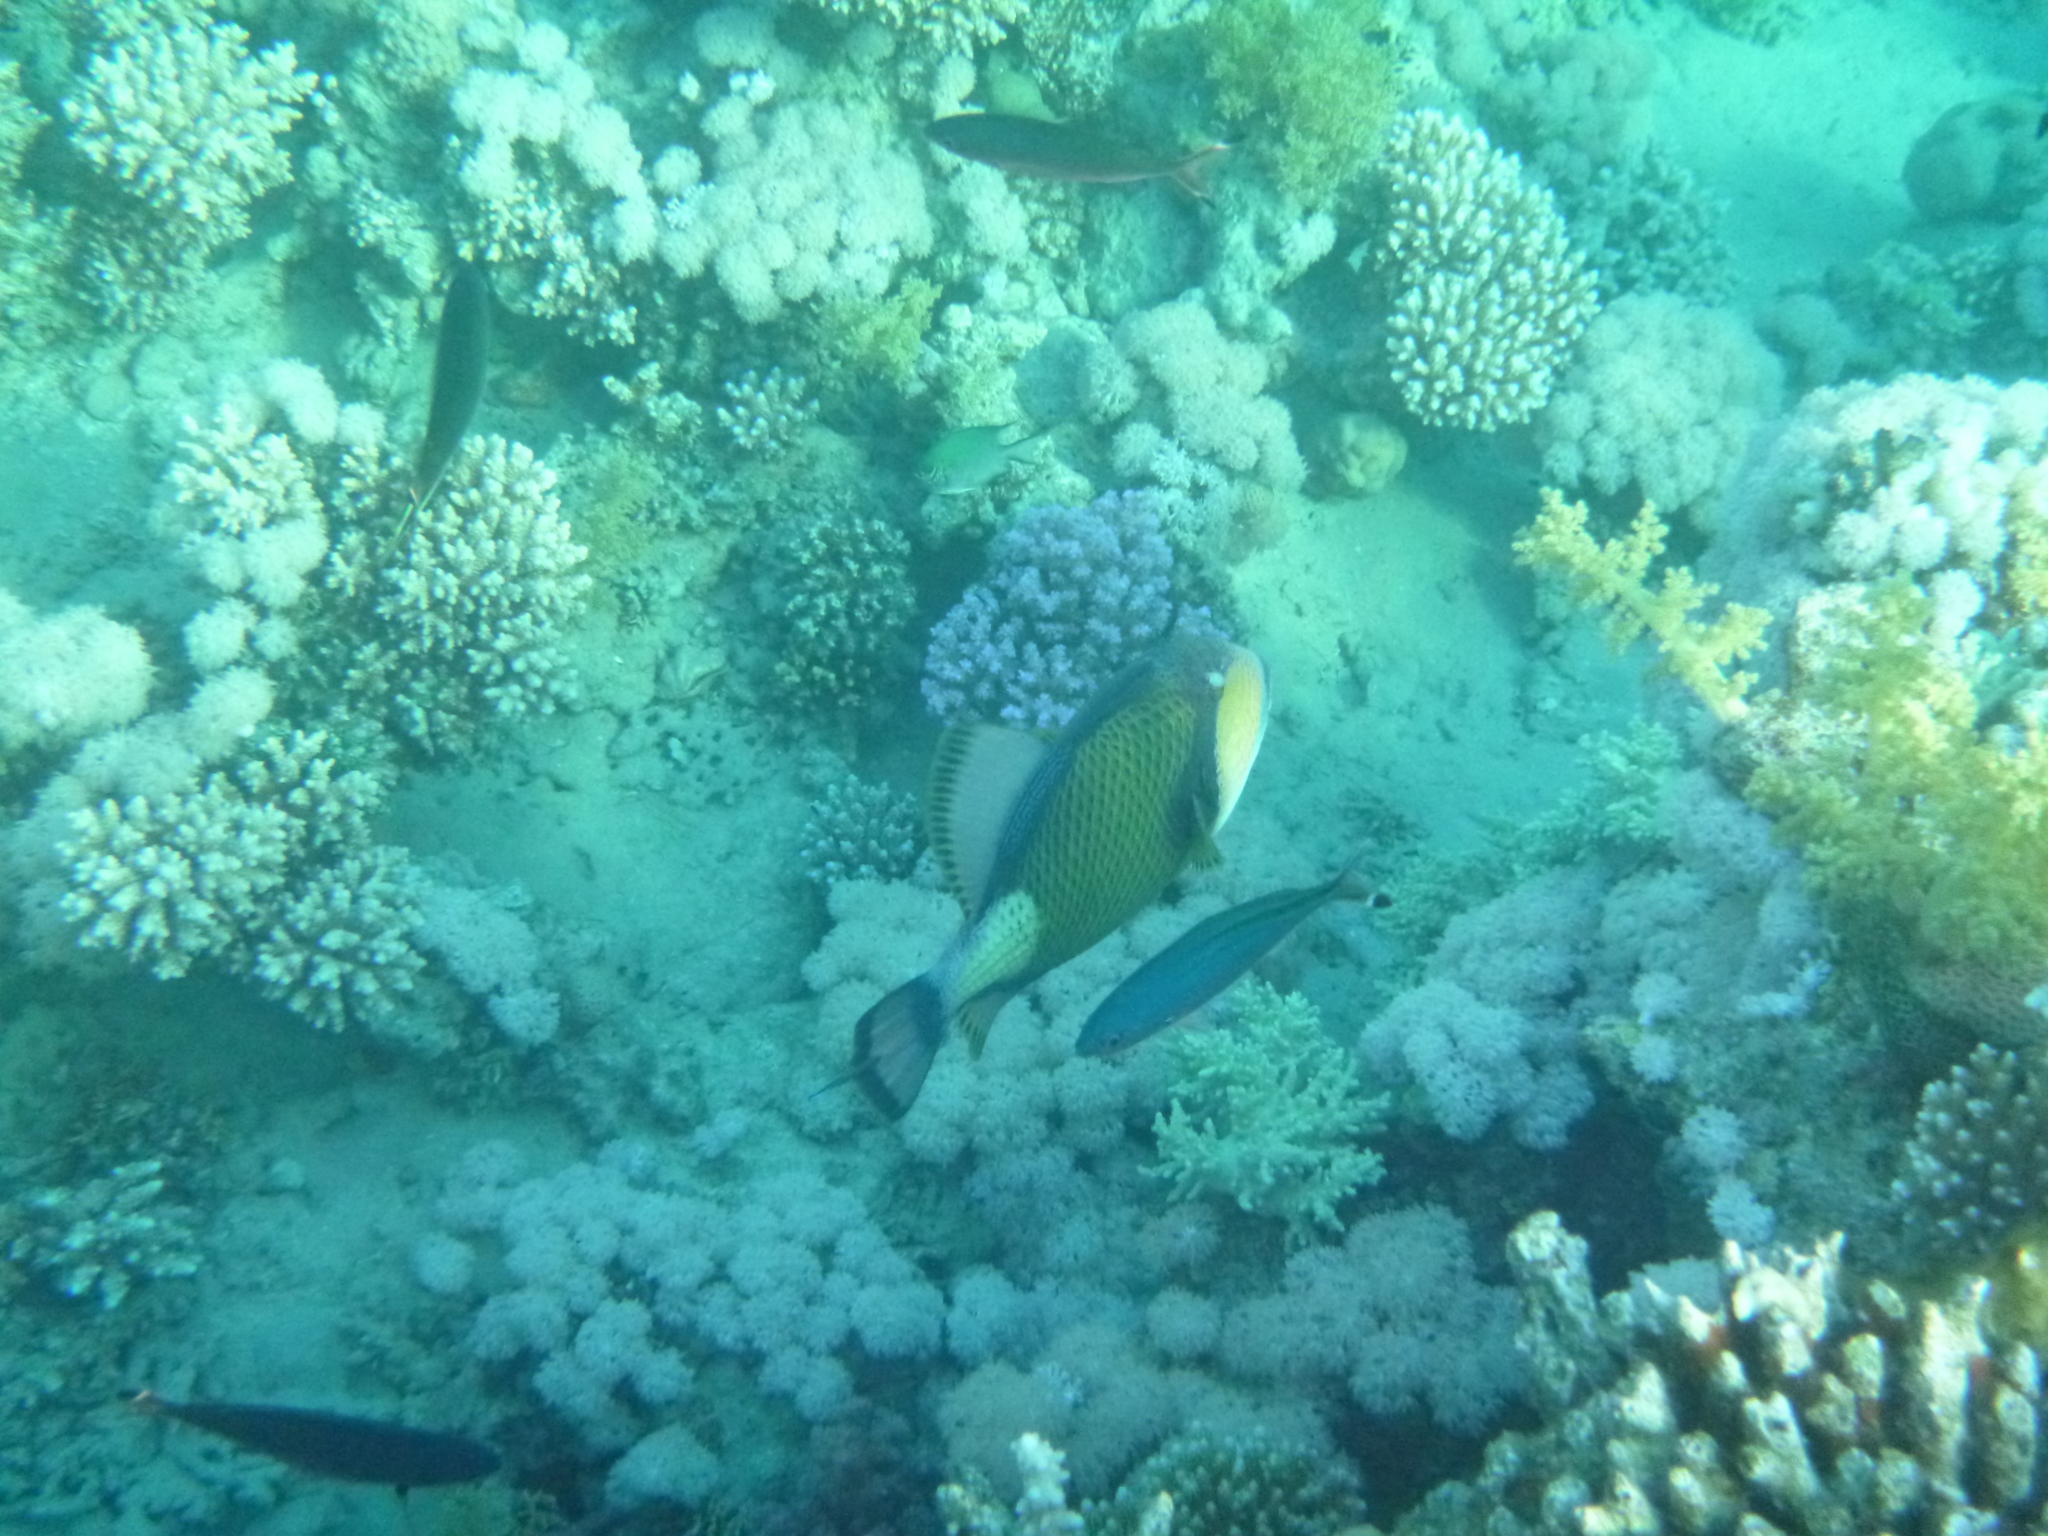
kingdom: Animalia
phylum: Chordata
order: Tetraodontiformes
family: Balistidae
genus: Balistoides
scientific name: Balistoides viridescens
